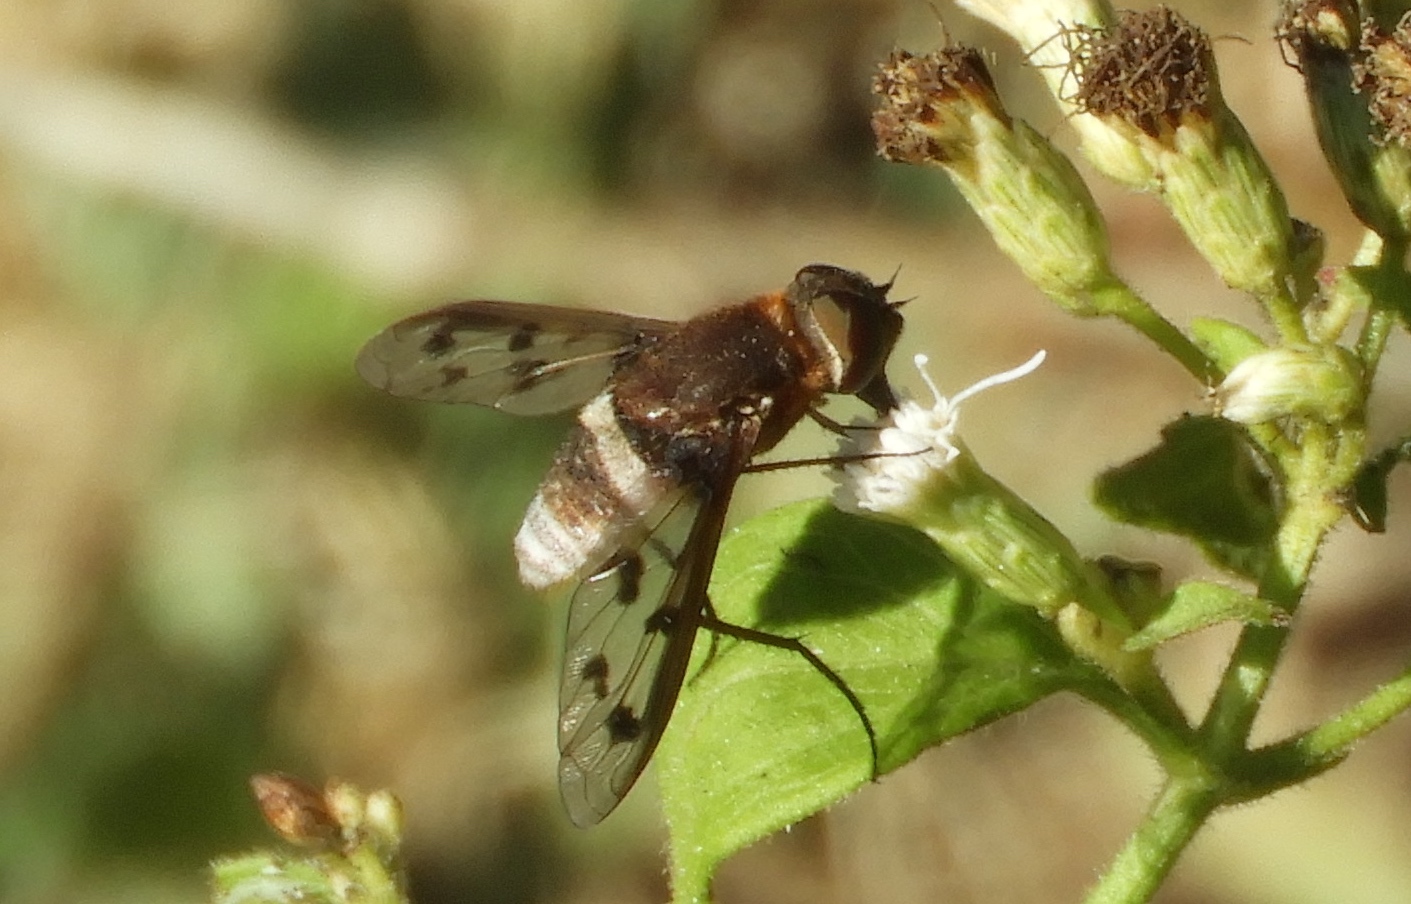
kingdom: Animalia
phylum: Arthropoda
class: Insecta
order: Diptera
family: Bombyliidae
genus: Nyia
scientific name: Nyia
